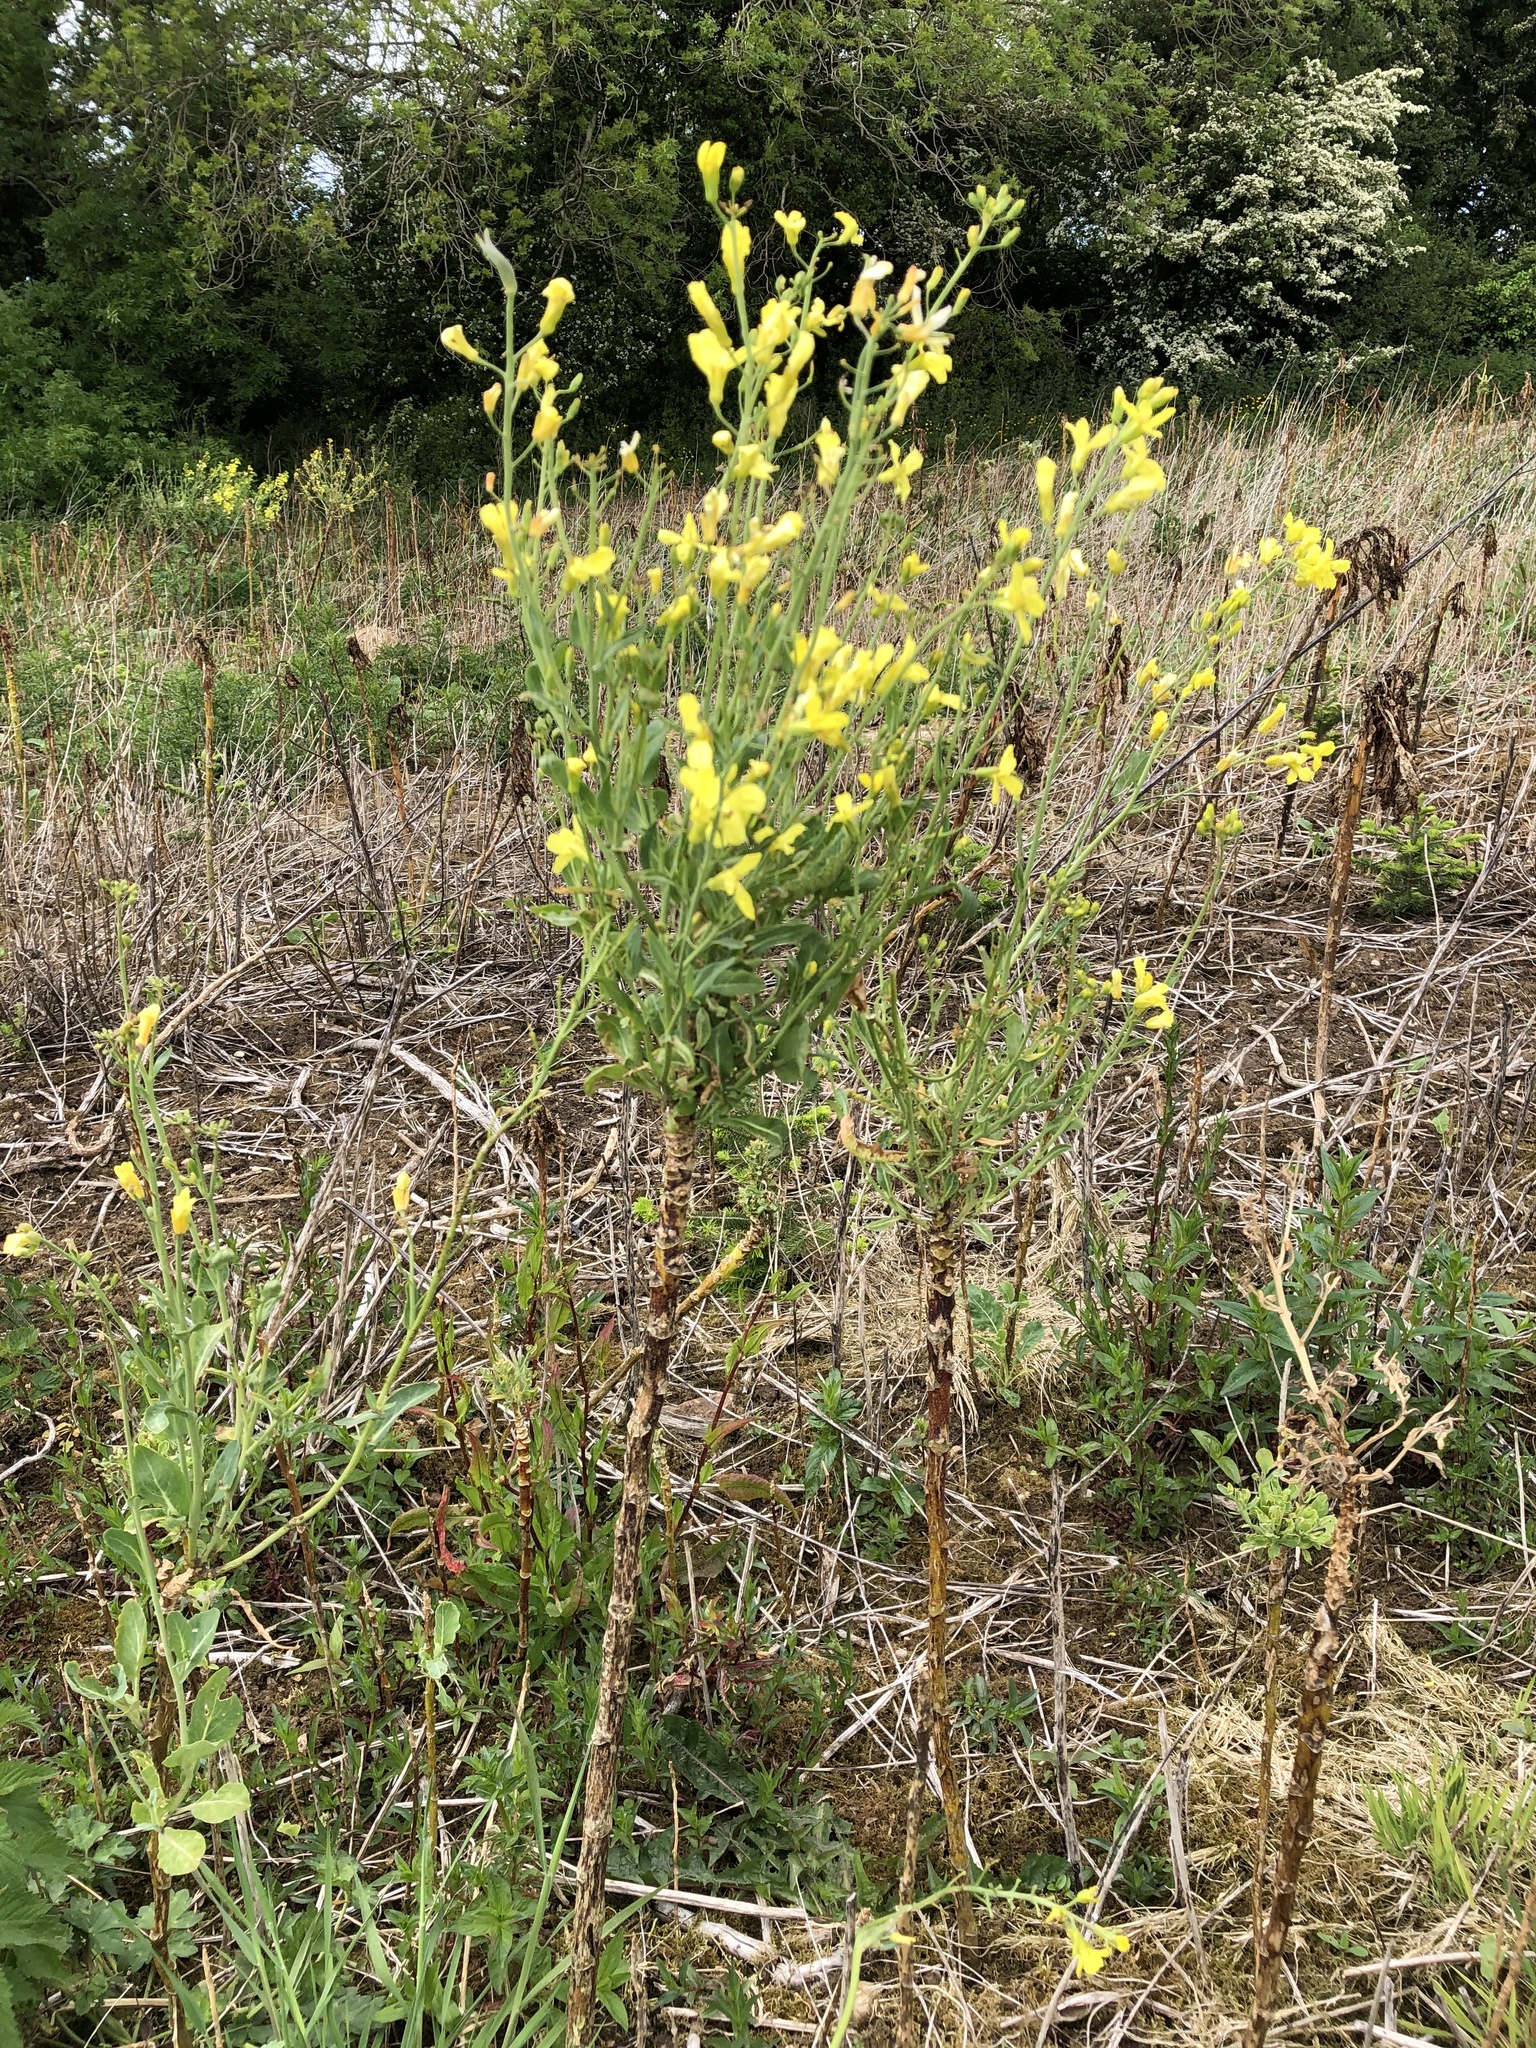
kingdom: Plantae
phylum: Tracheophyta
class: Magnoliopsida
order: Brassicales
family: Brassicaceae
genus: Brassica
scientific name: Brassica oleracea
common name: Cabbage
